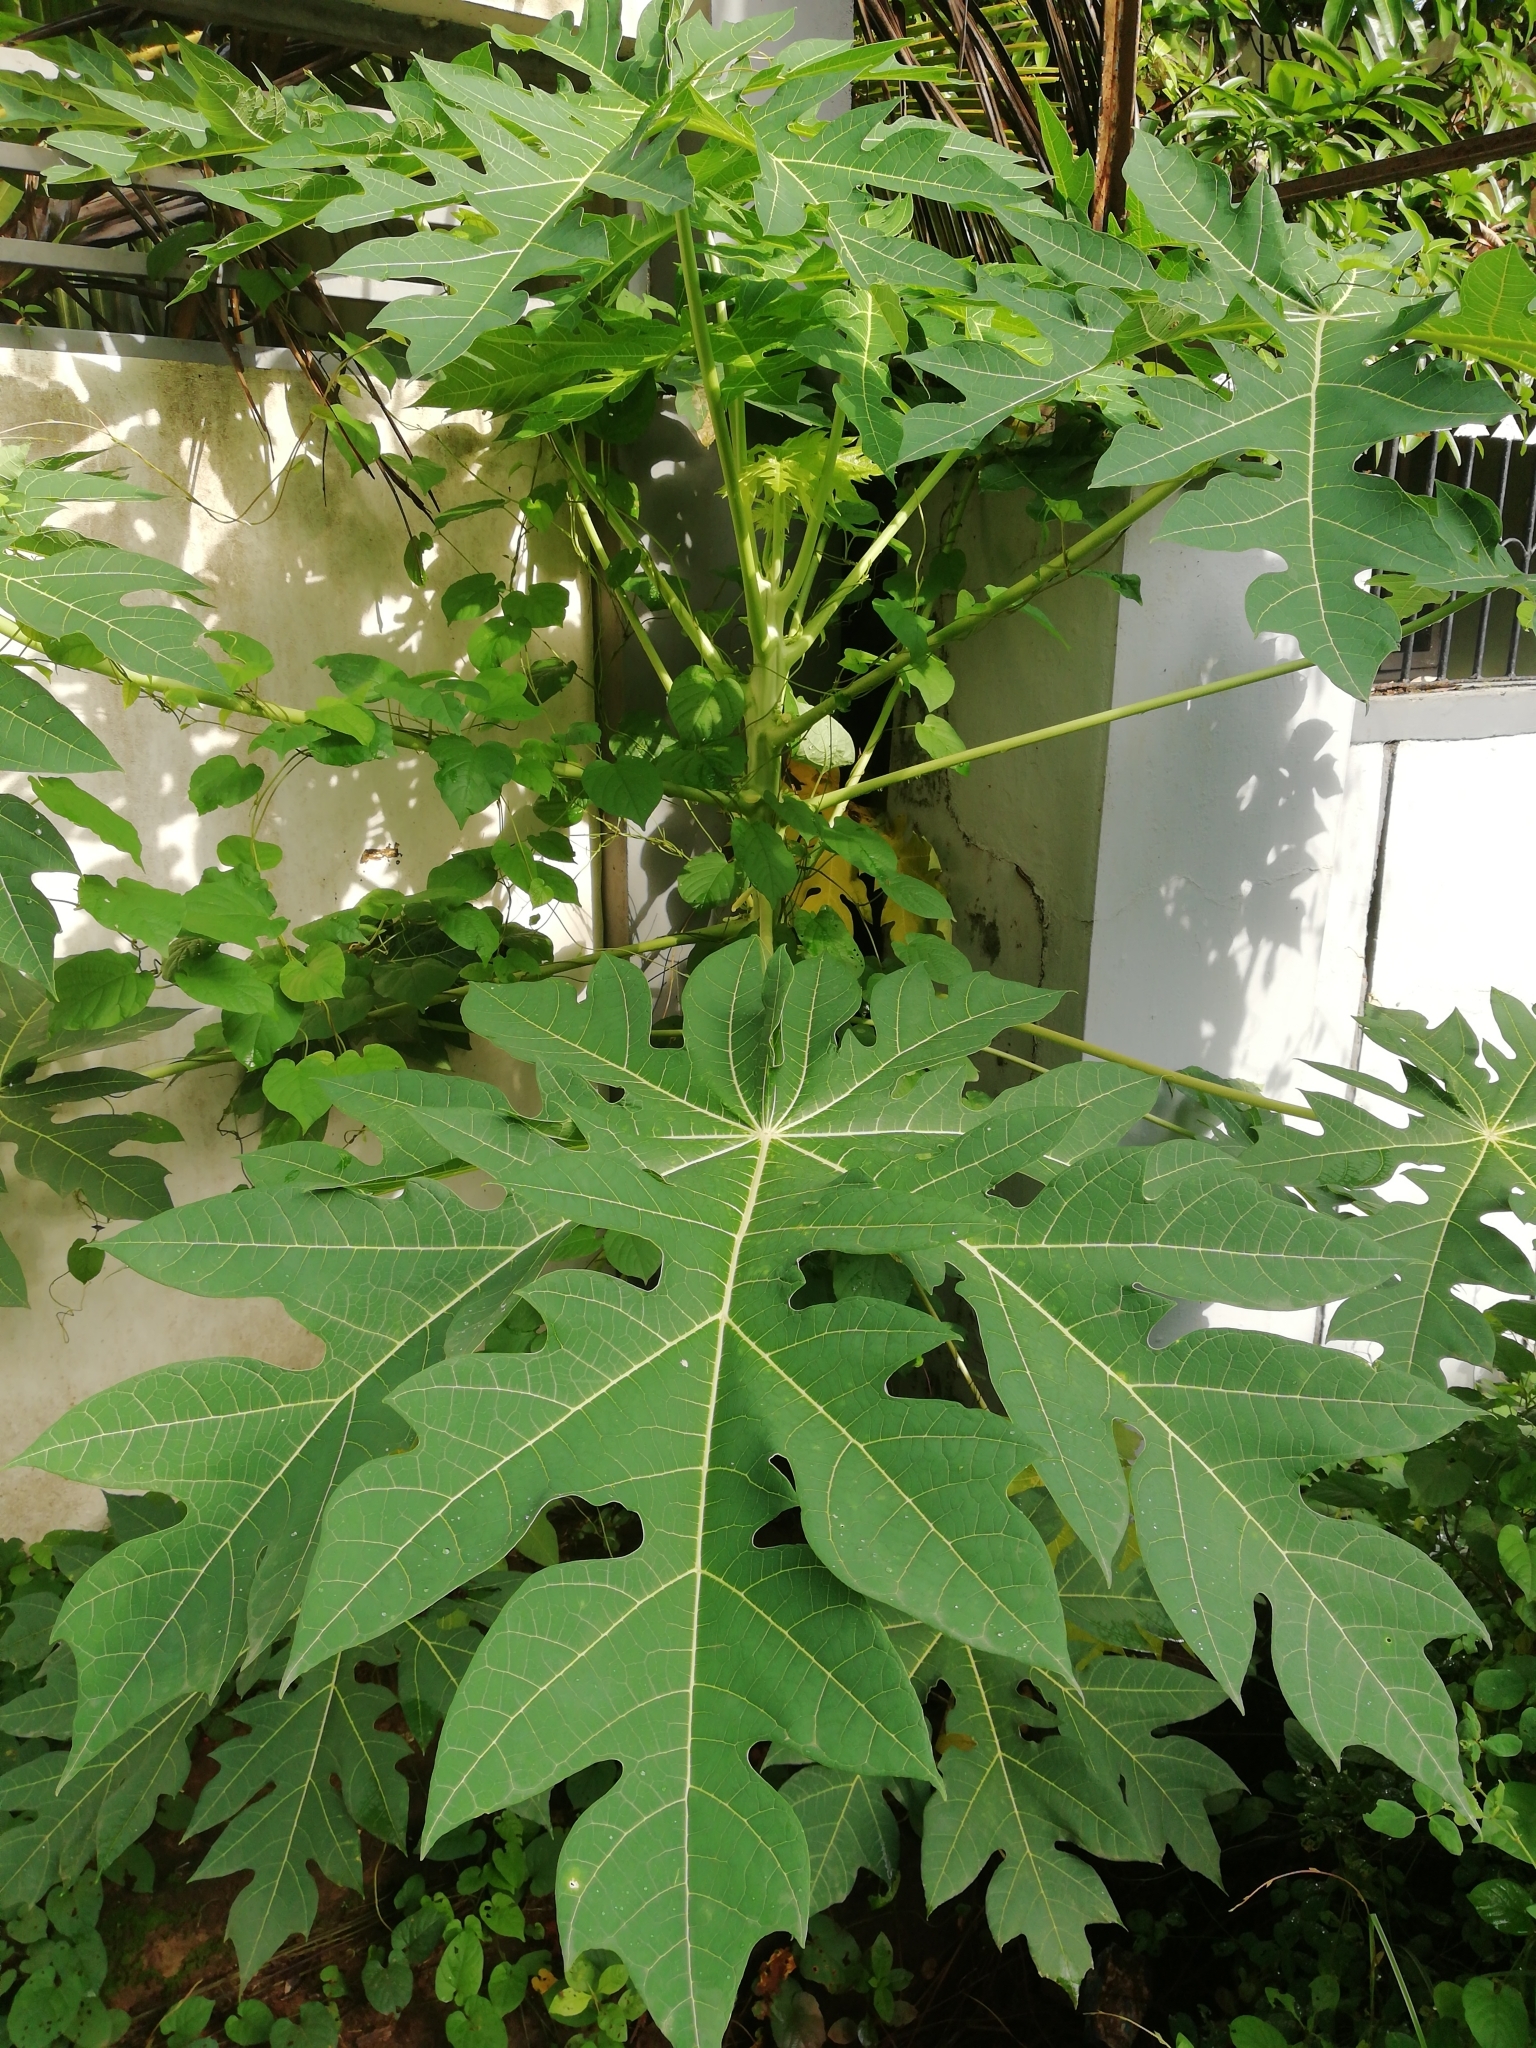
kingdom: Plantae
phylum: Tracheophyta
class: Magnoliopsida
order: Brassicales
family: Caricaceae
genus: Carica
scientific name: Carica papaya
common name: Papaya
